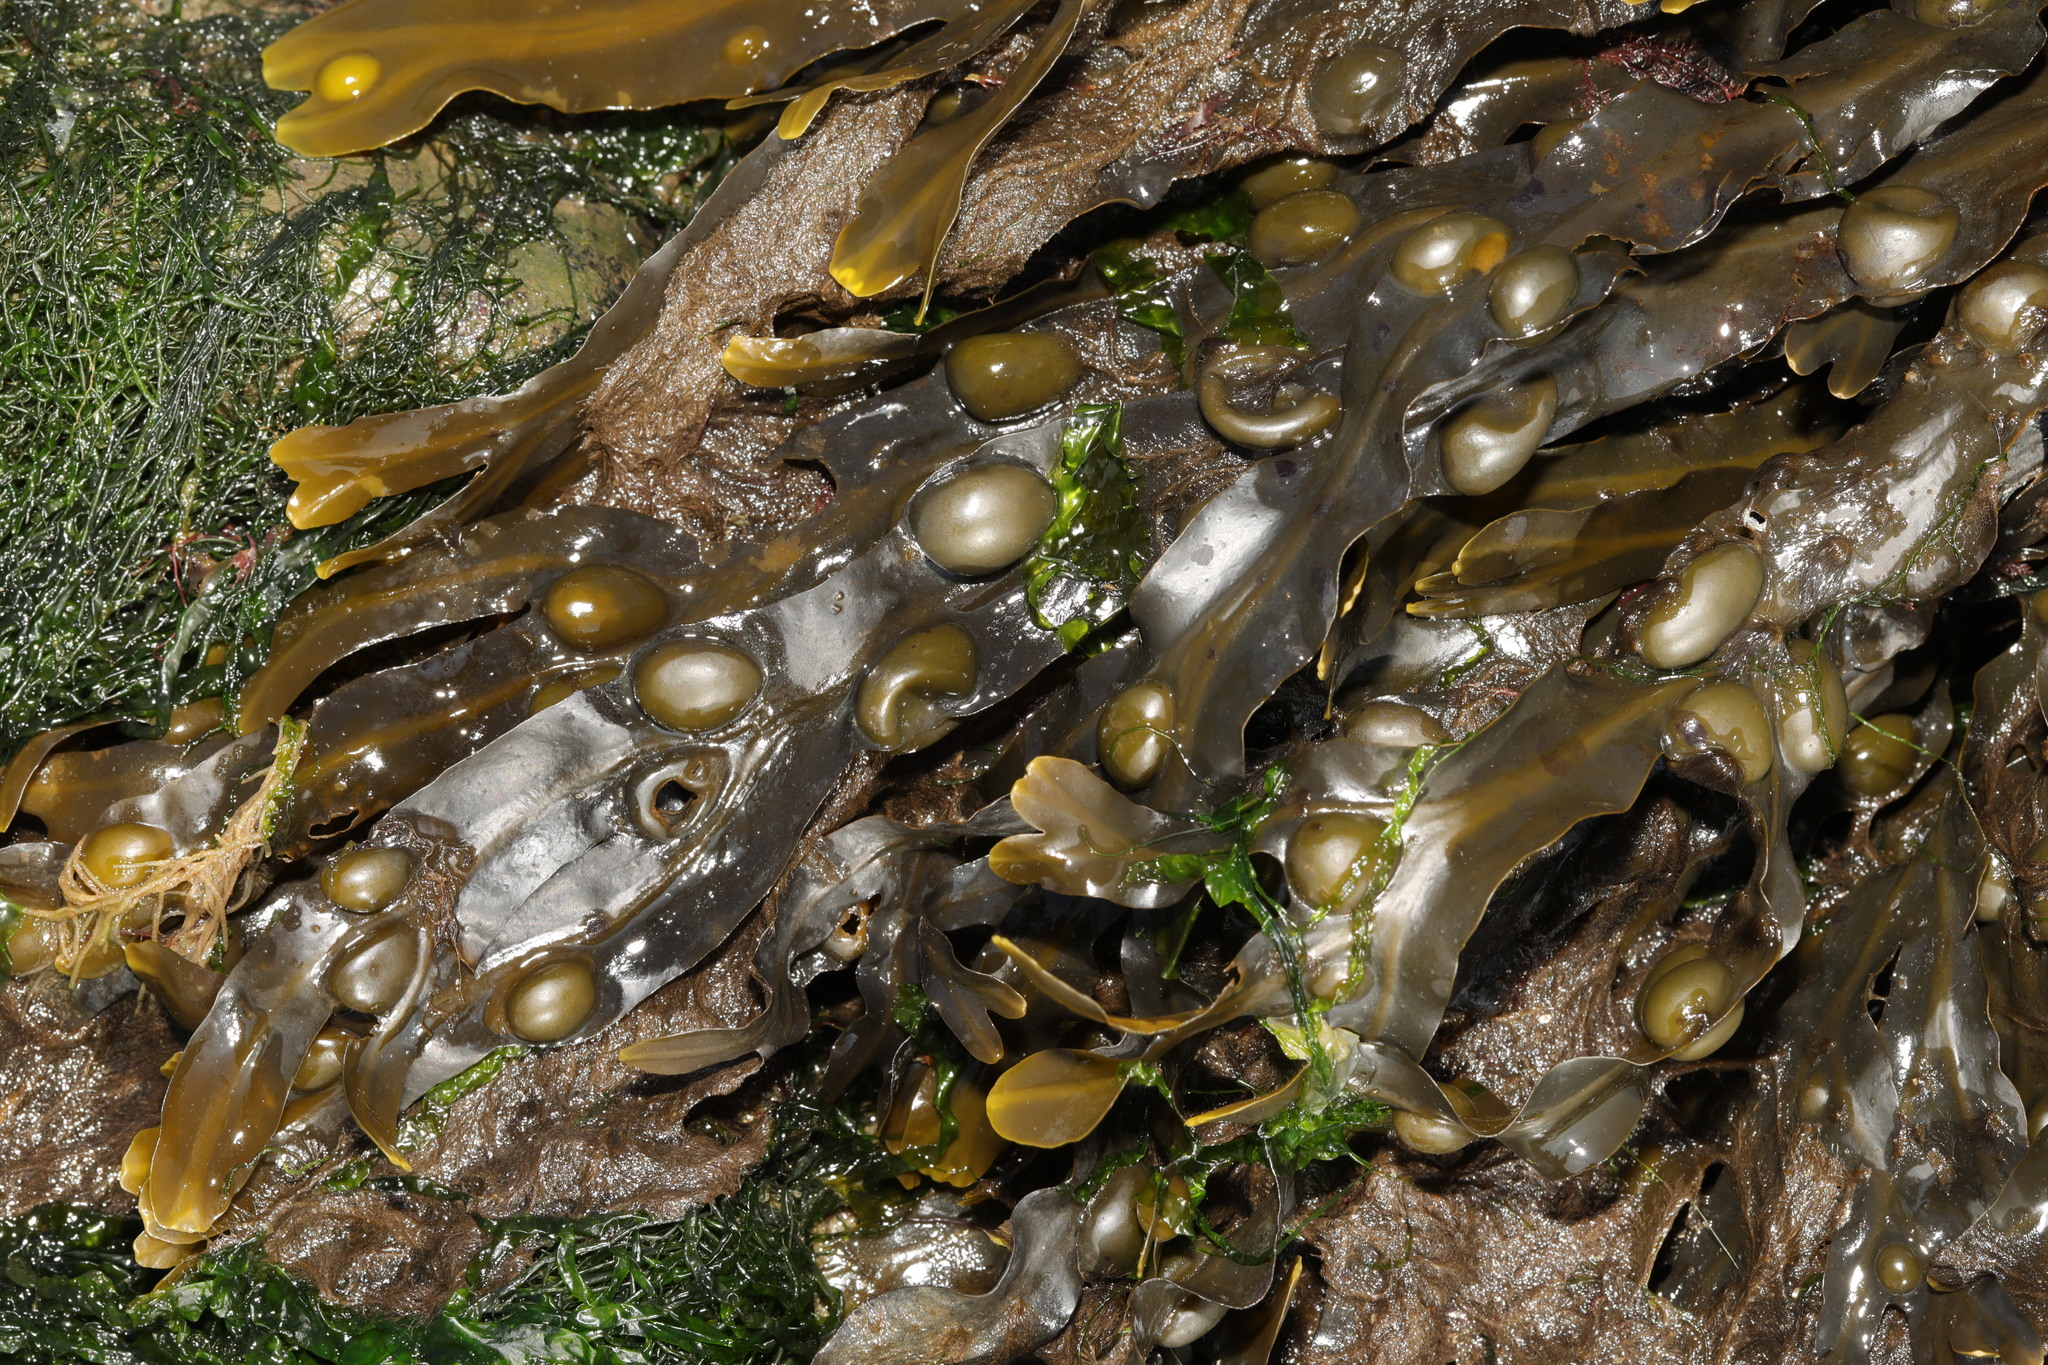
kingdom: Chromista
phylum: Ochrophyta
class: Phaeophyceae
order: Fucales
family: Fucaceae
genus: Fucus
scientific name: Fucus vesiculosus
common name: Bladder wrack
